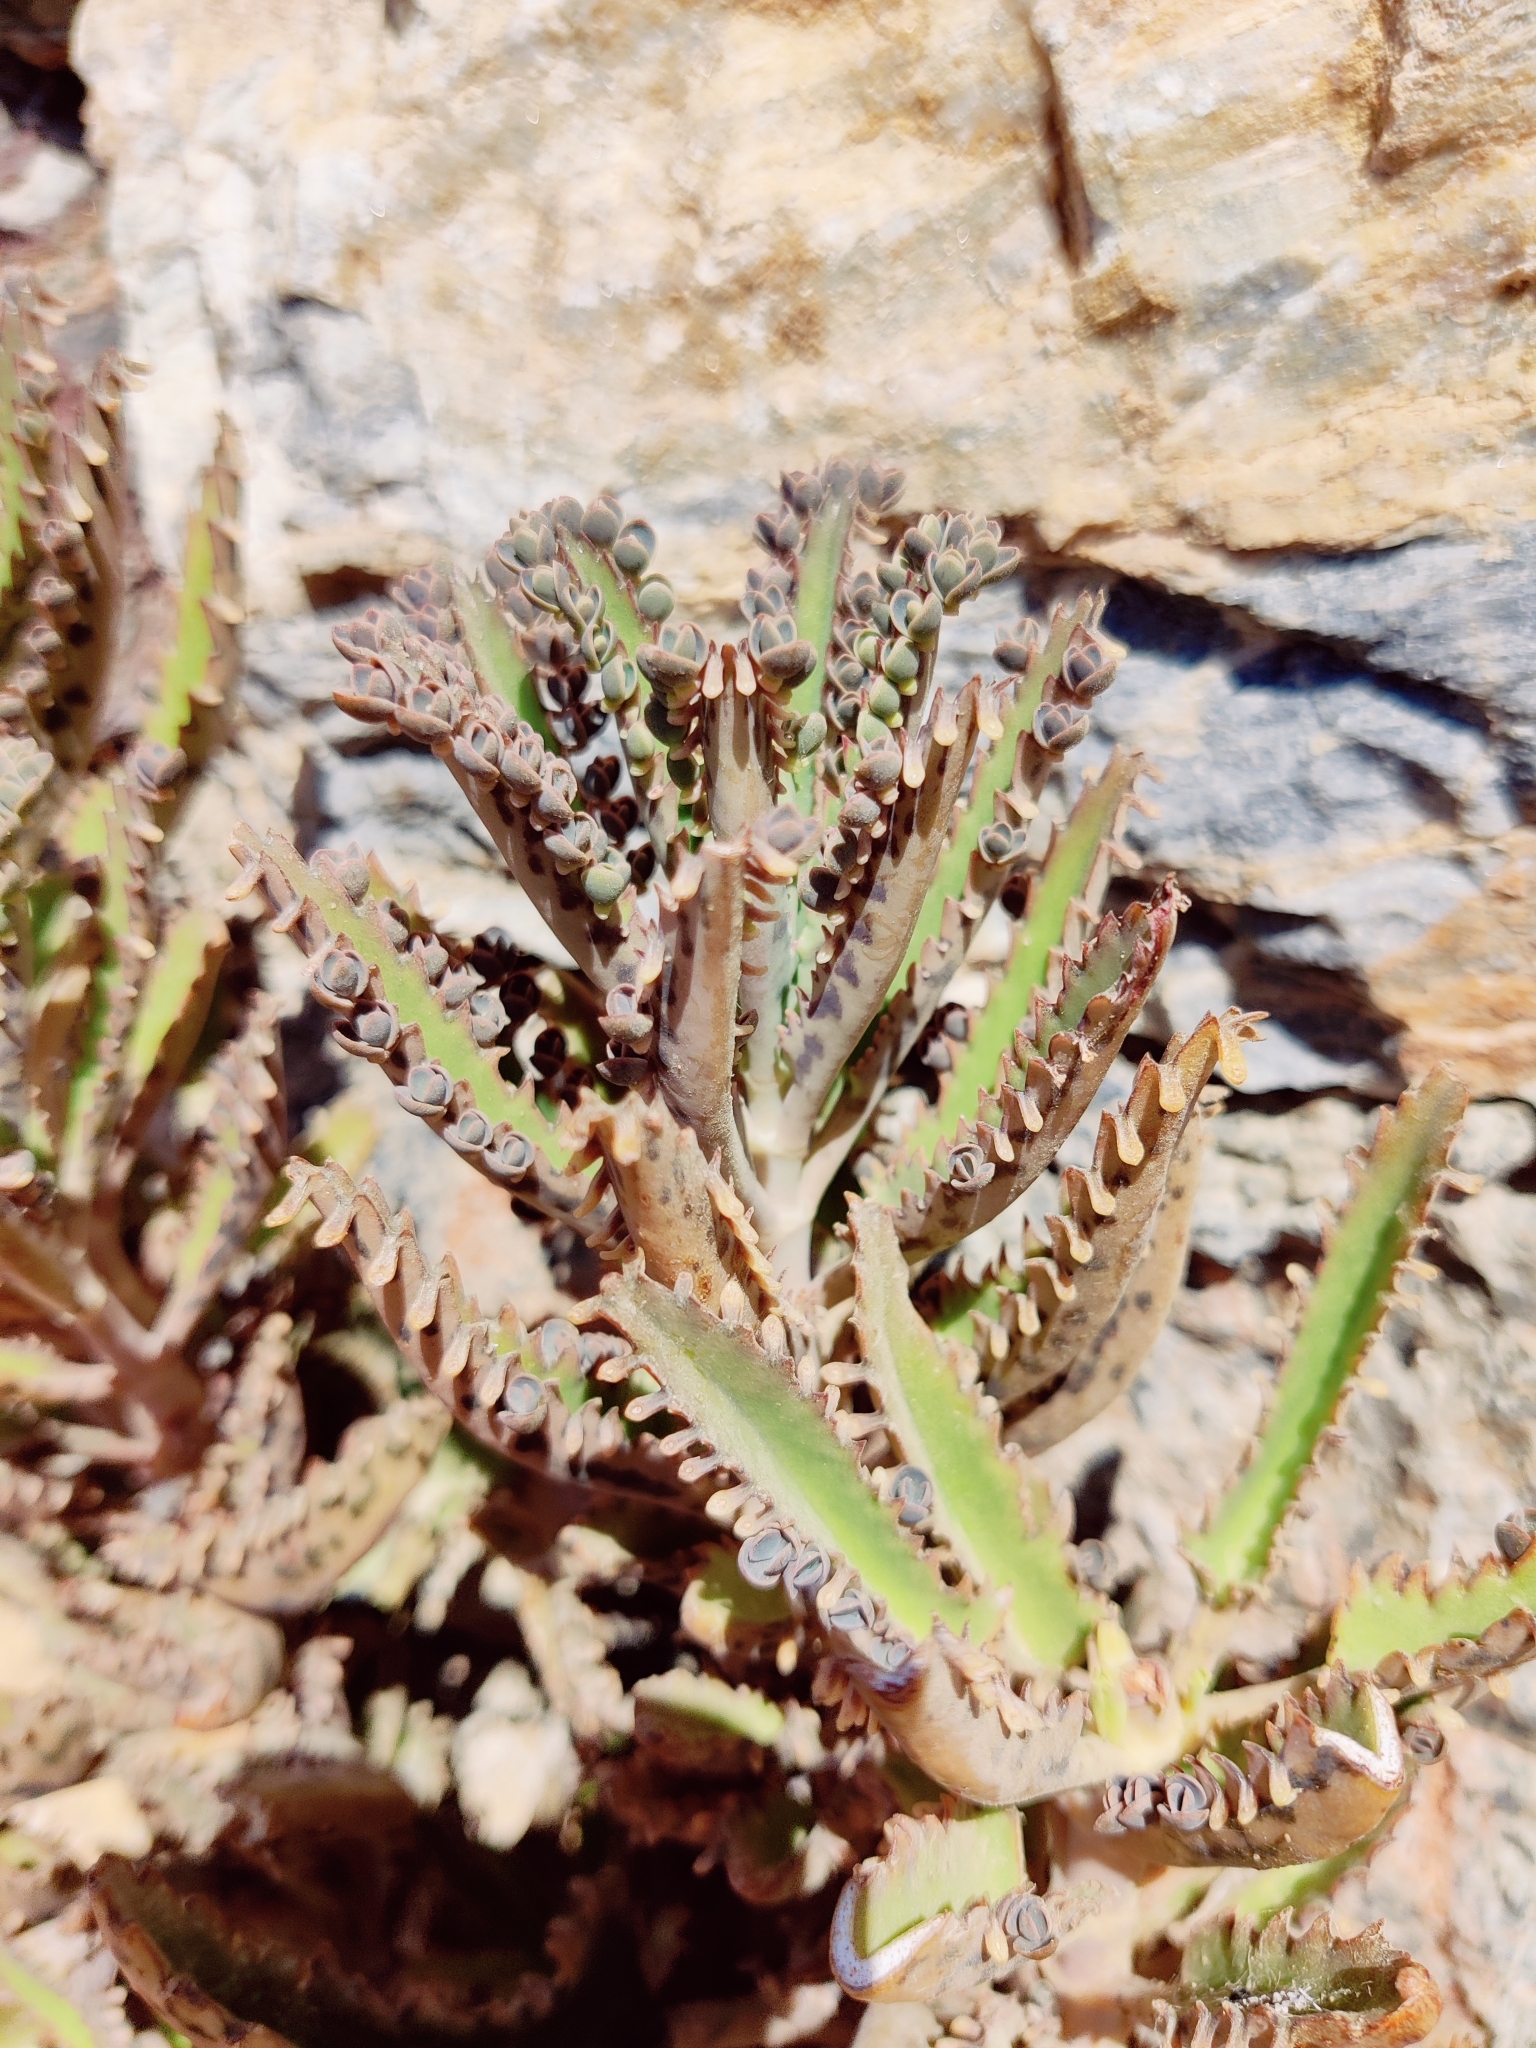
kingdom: Plantae
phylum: Tracheophyta
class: Magnoliopsida
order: Saxifragales
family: Crassulaceae
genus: Kalanchoe
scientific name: Kalanchoe houghtonii
